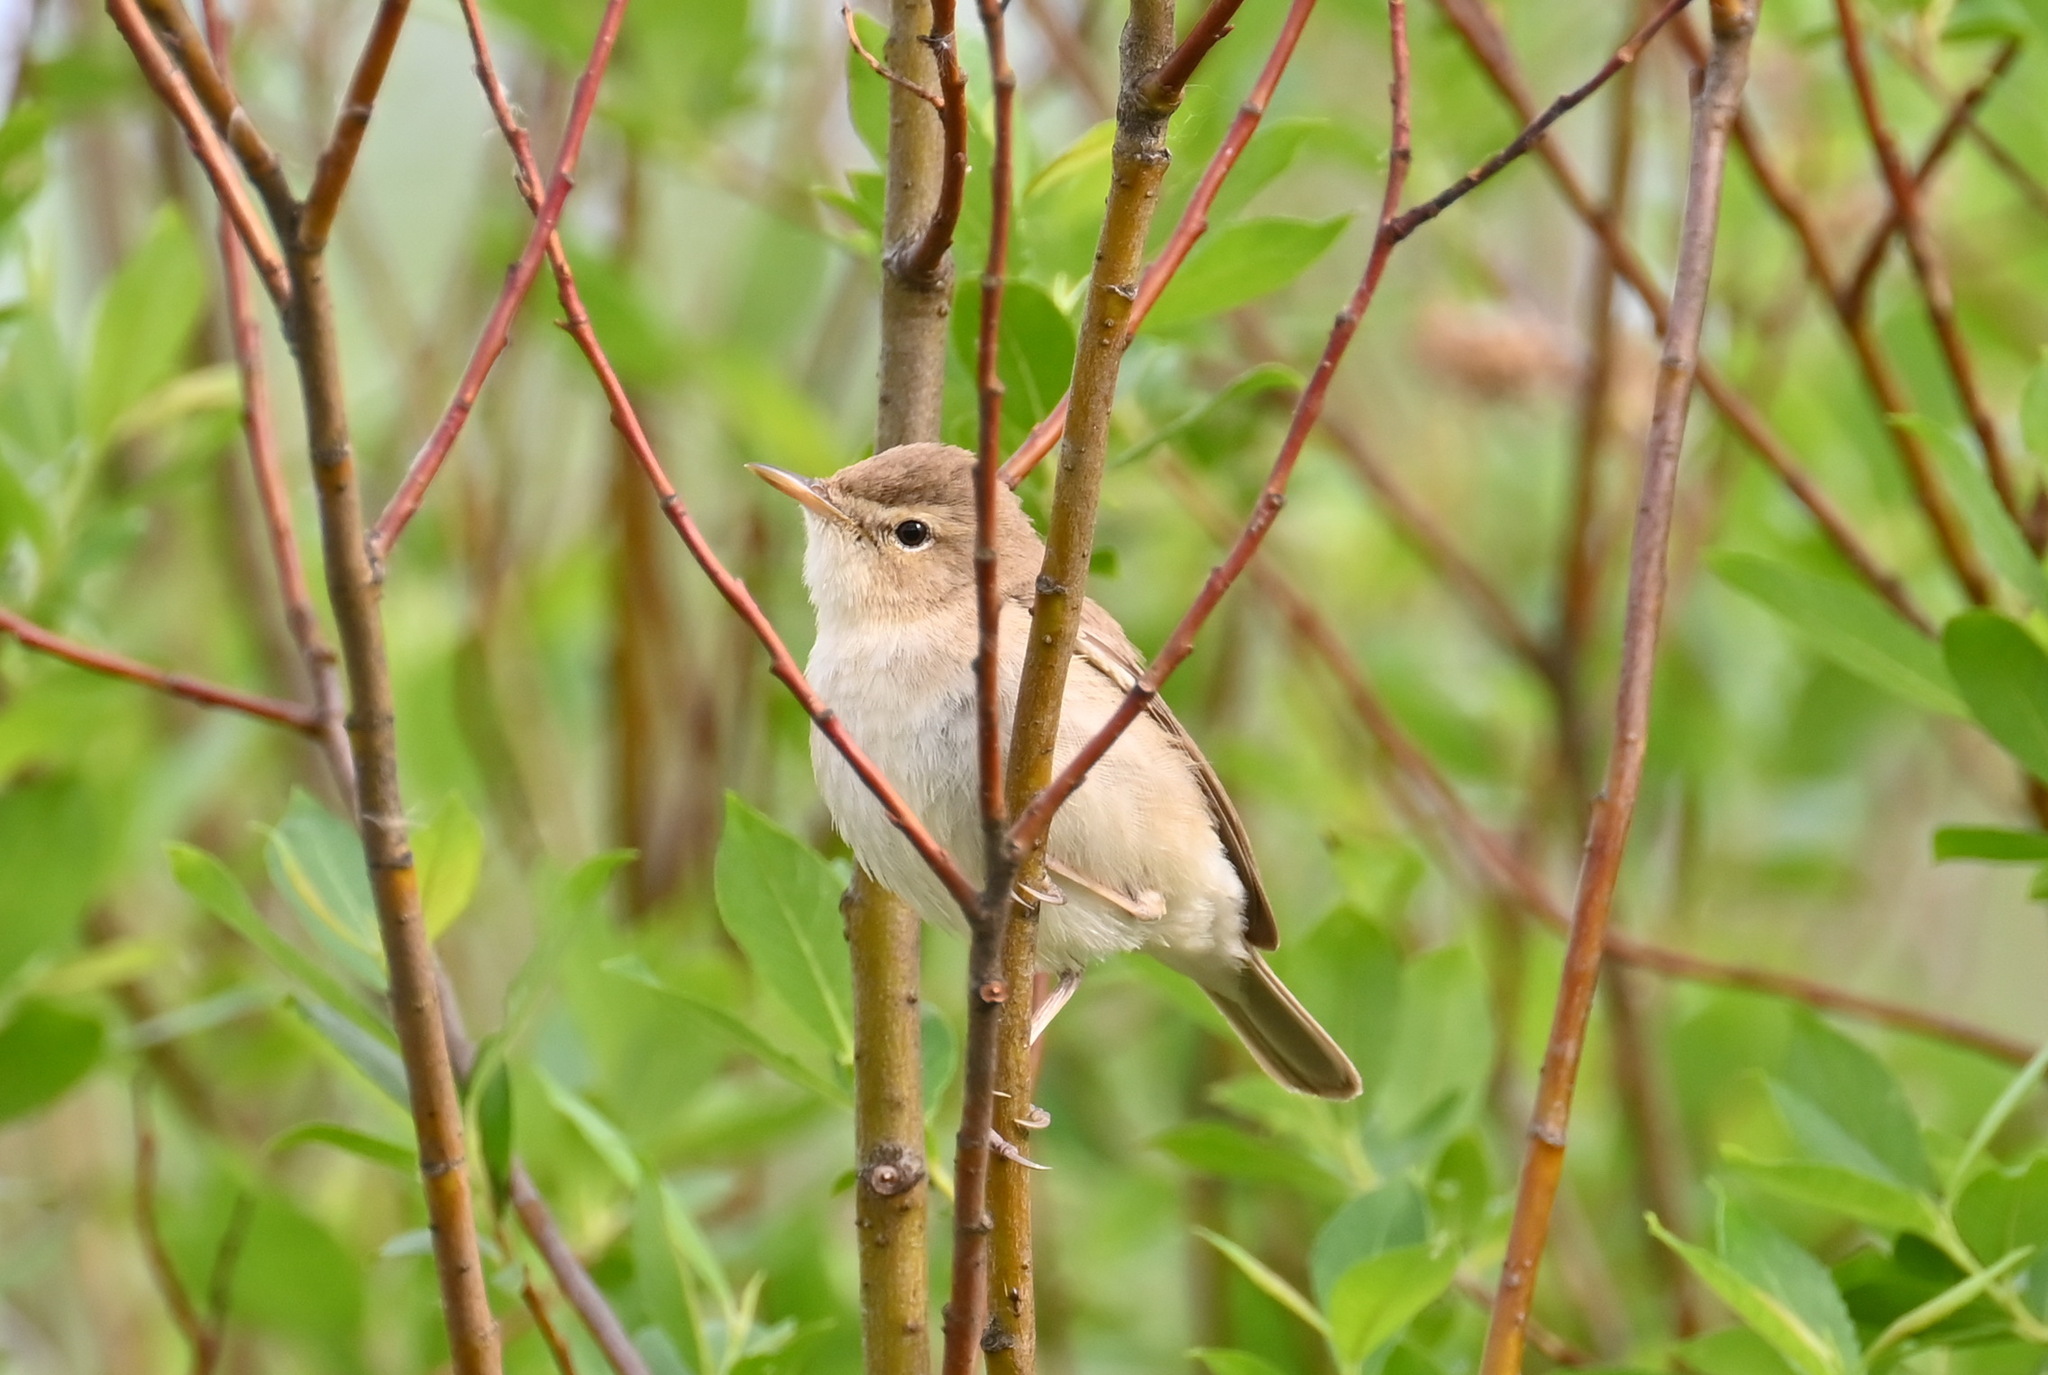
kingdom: Animalia
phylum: Chordata
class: Aves
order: Passeriformes
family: Acrocephalidae
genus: Iduna
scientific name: Iduna caligata
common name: Booted warbler
